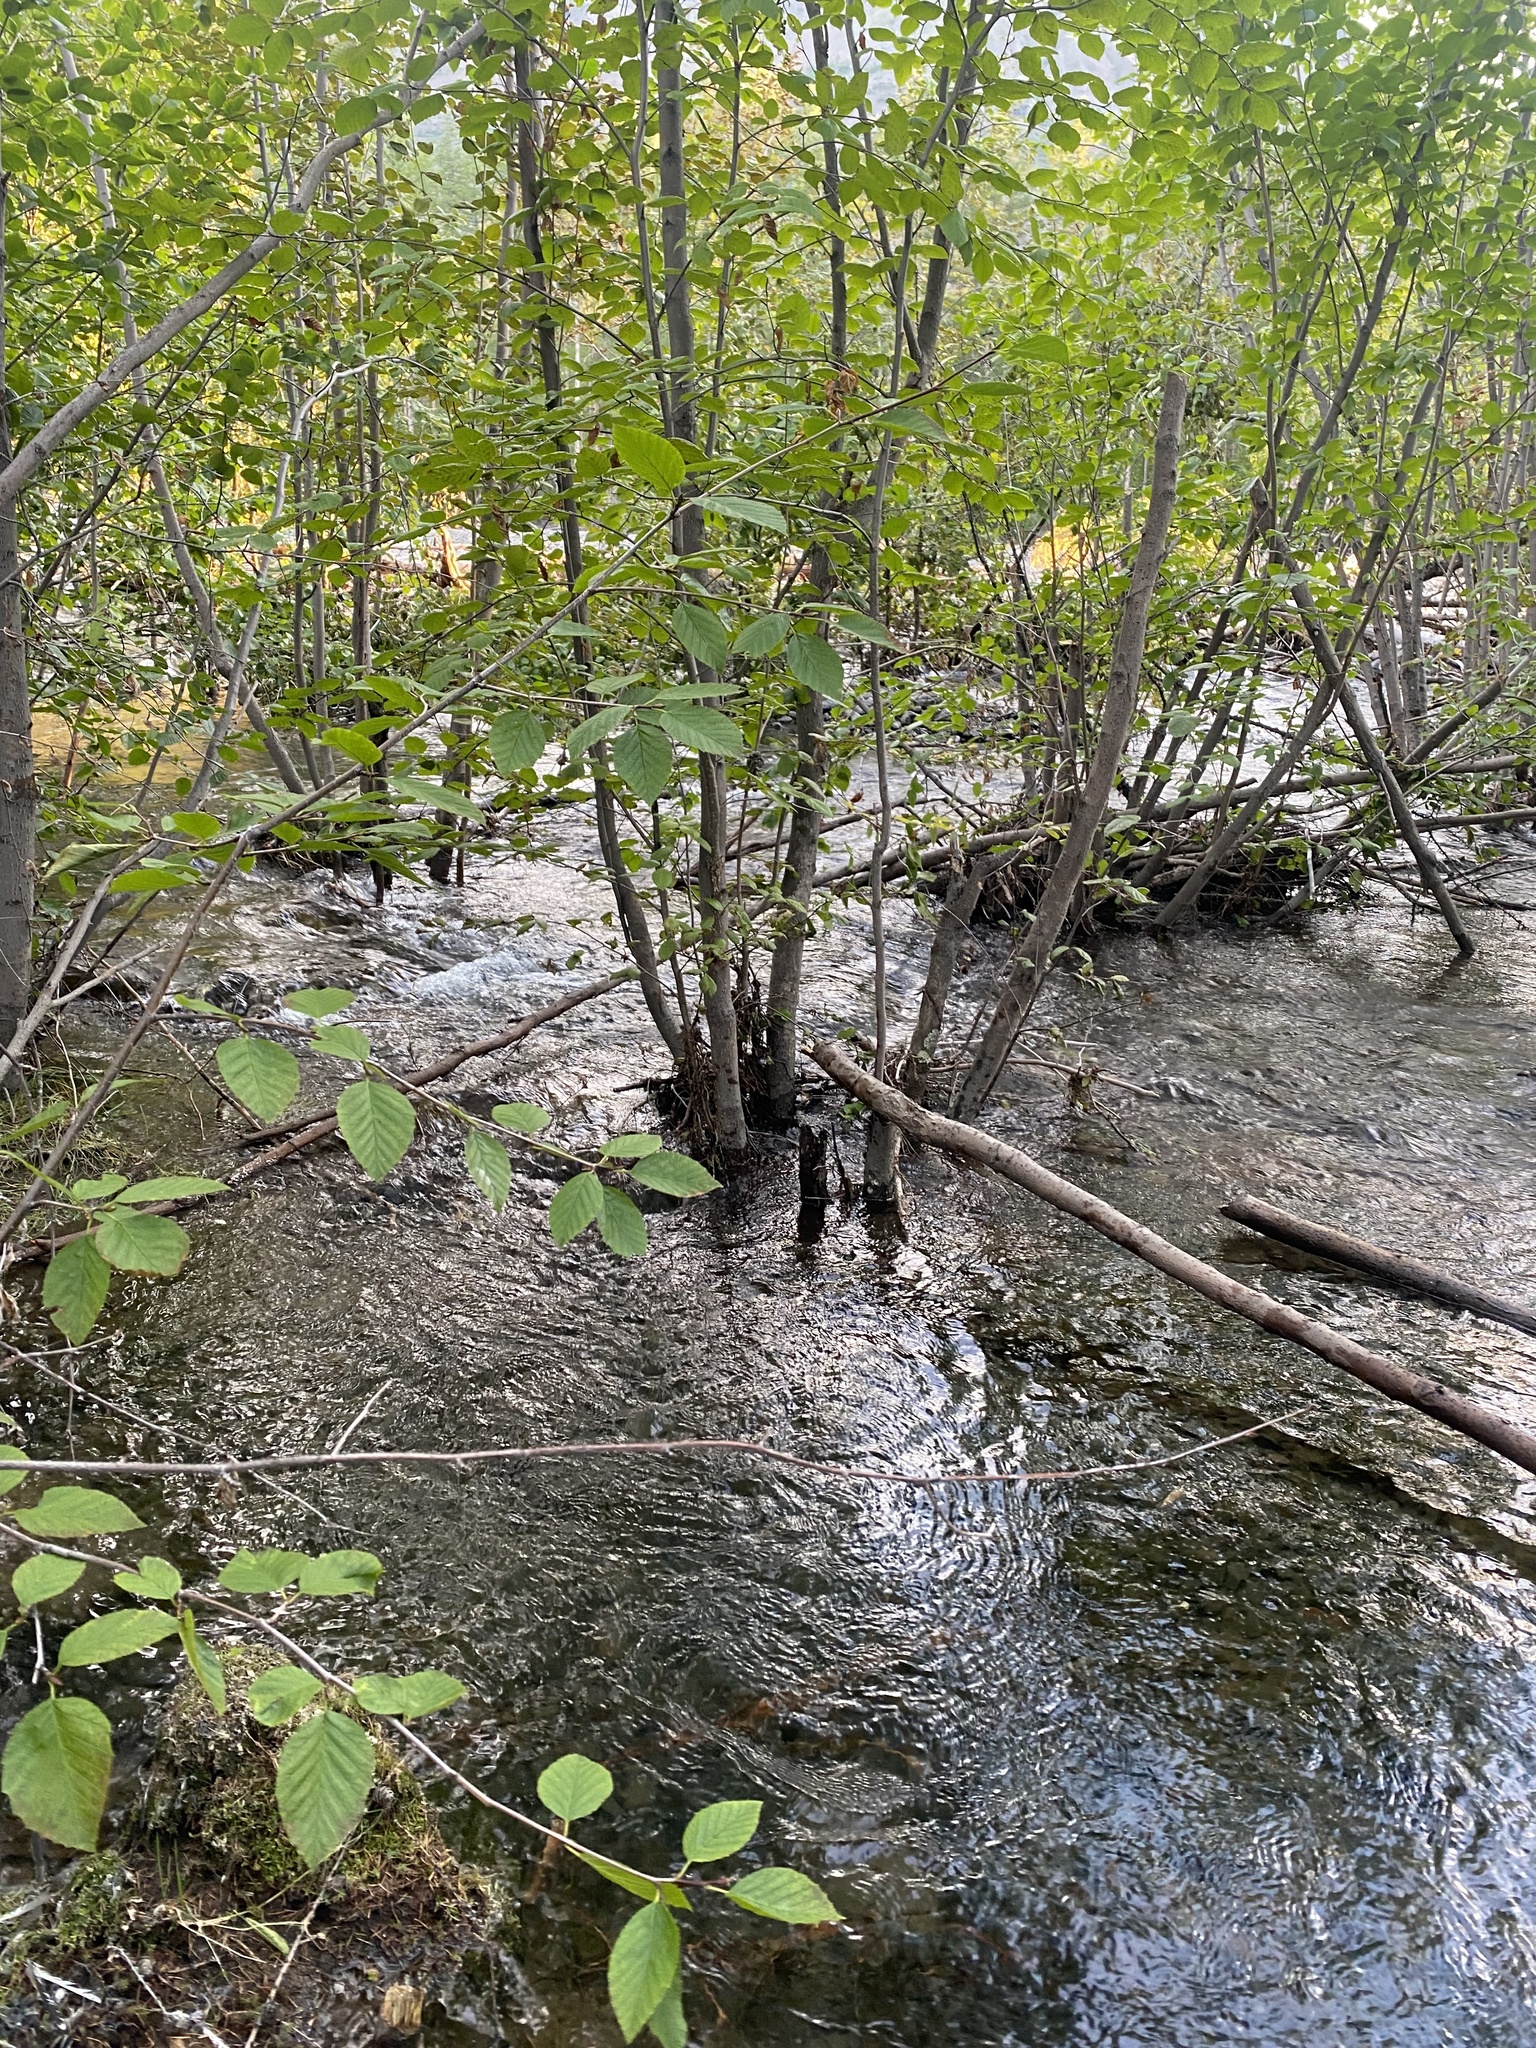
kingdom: Plantae
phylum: Tracheophyta
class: Magnoliopsida
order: Fagales
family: Betulaceae
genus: Alnus
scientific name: Alnus alnobetula
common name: Green alder
